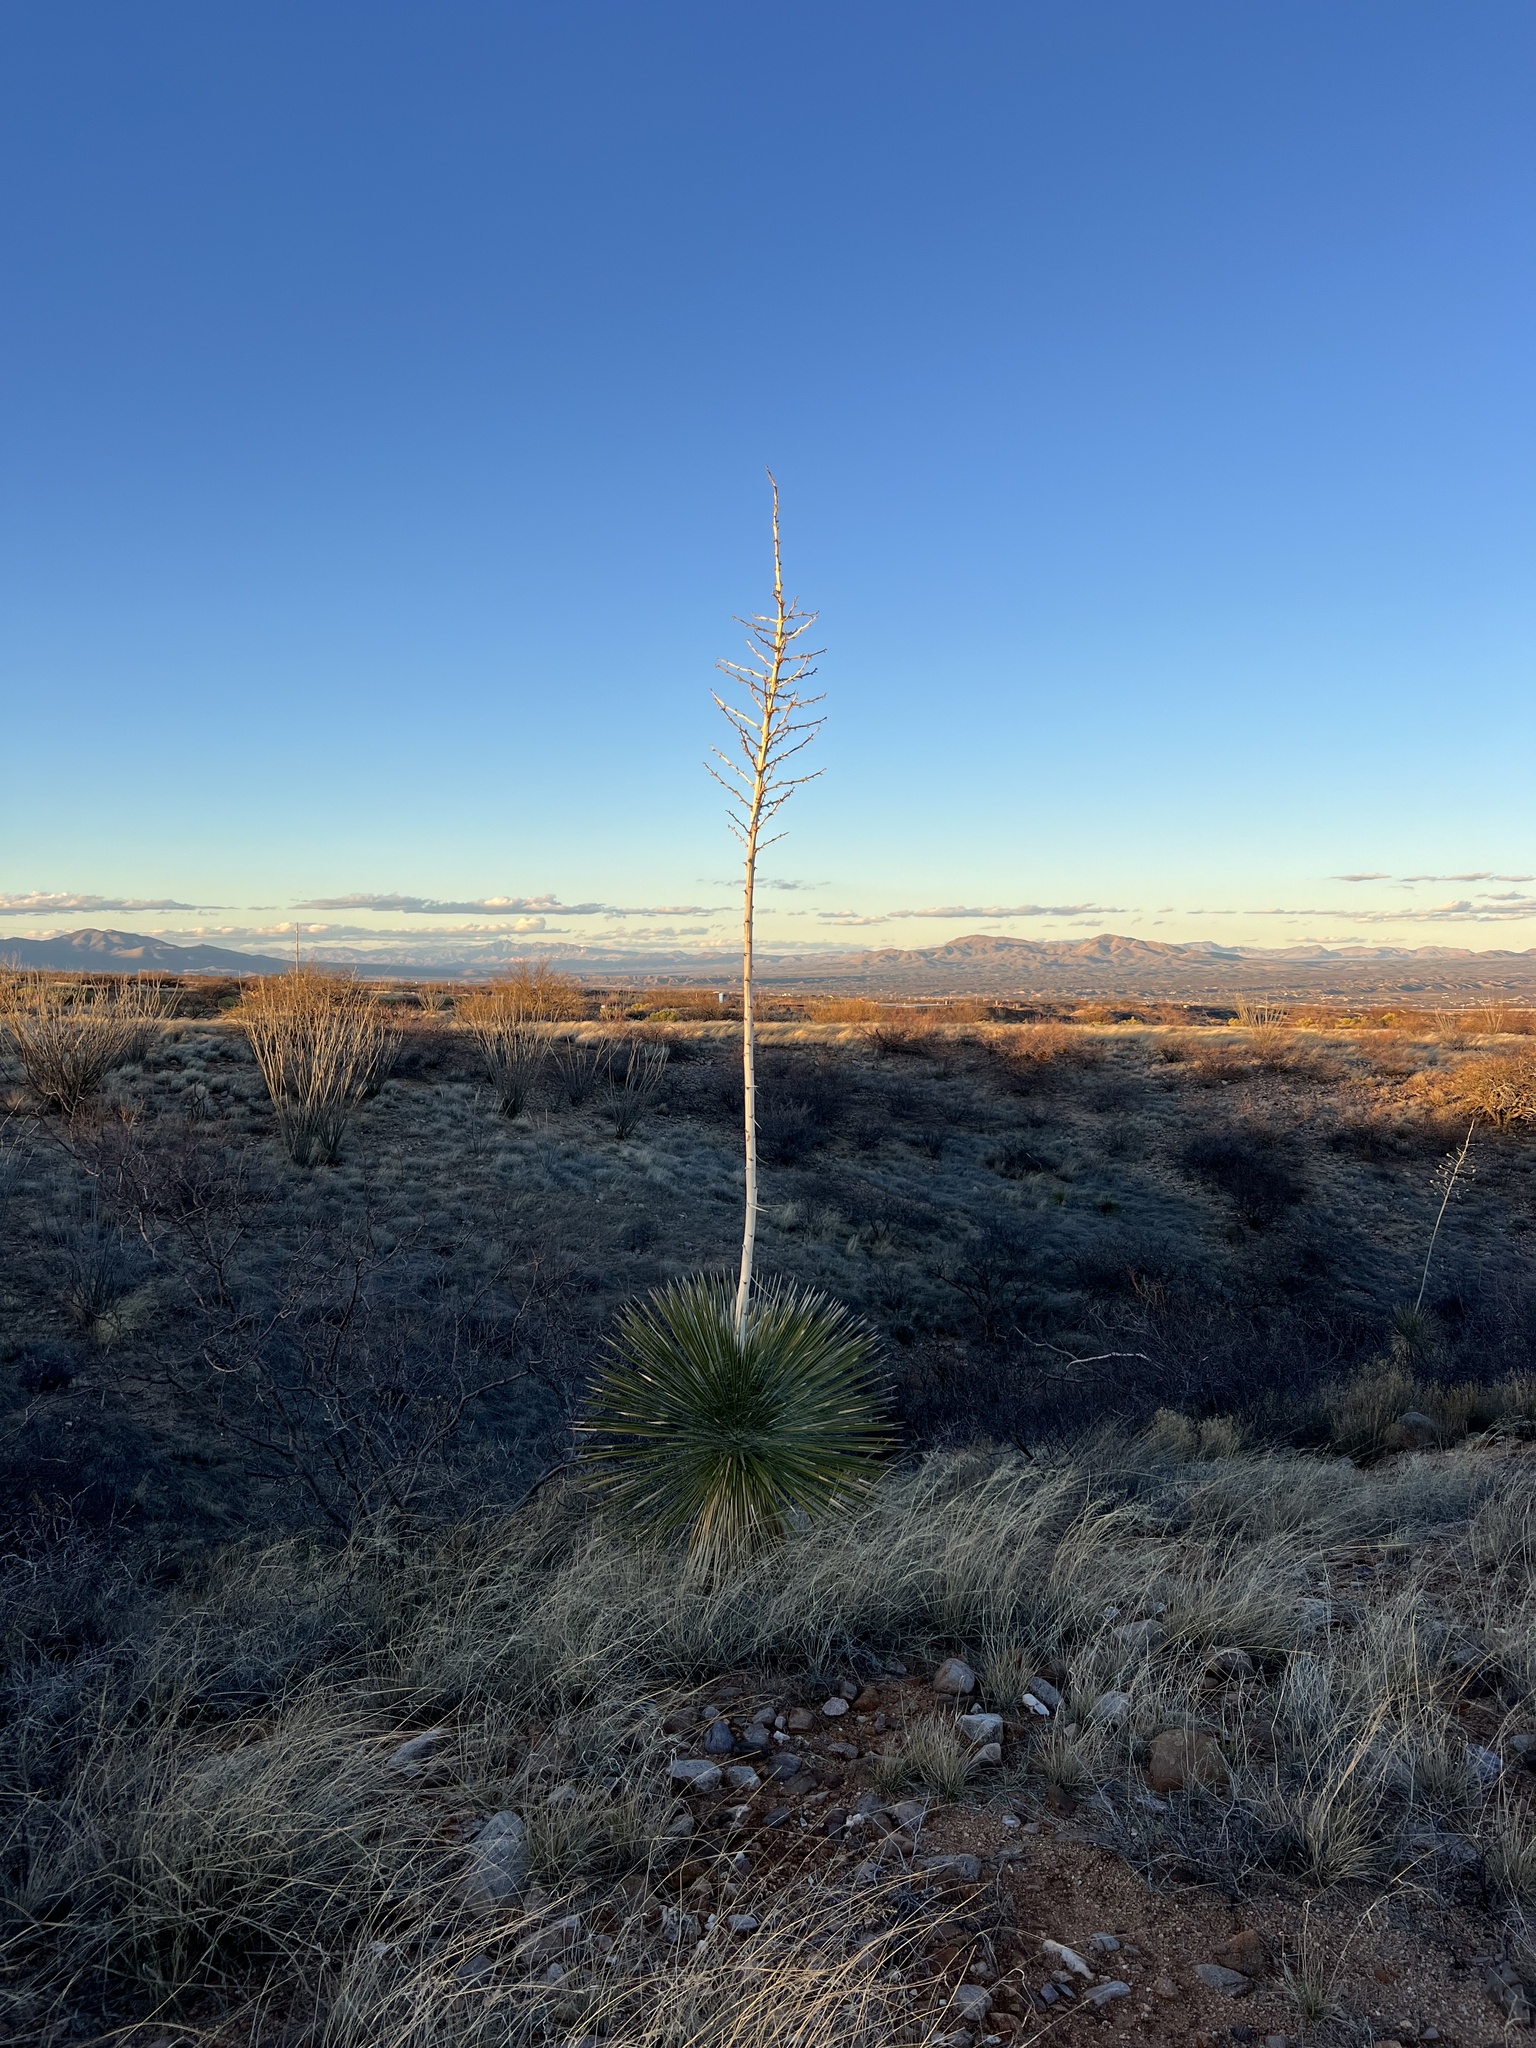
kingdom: Plantae
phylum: Tracheophyta
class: Liliopsida
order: Asparagales
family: Asparagaceae
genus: Yucca
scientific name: Yucca elata
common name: Palmella
